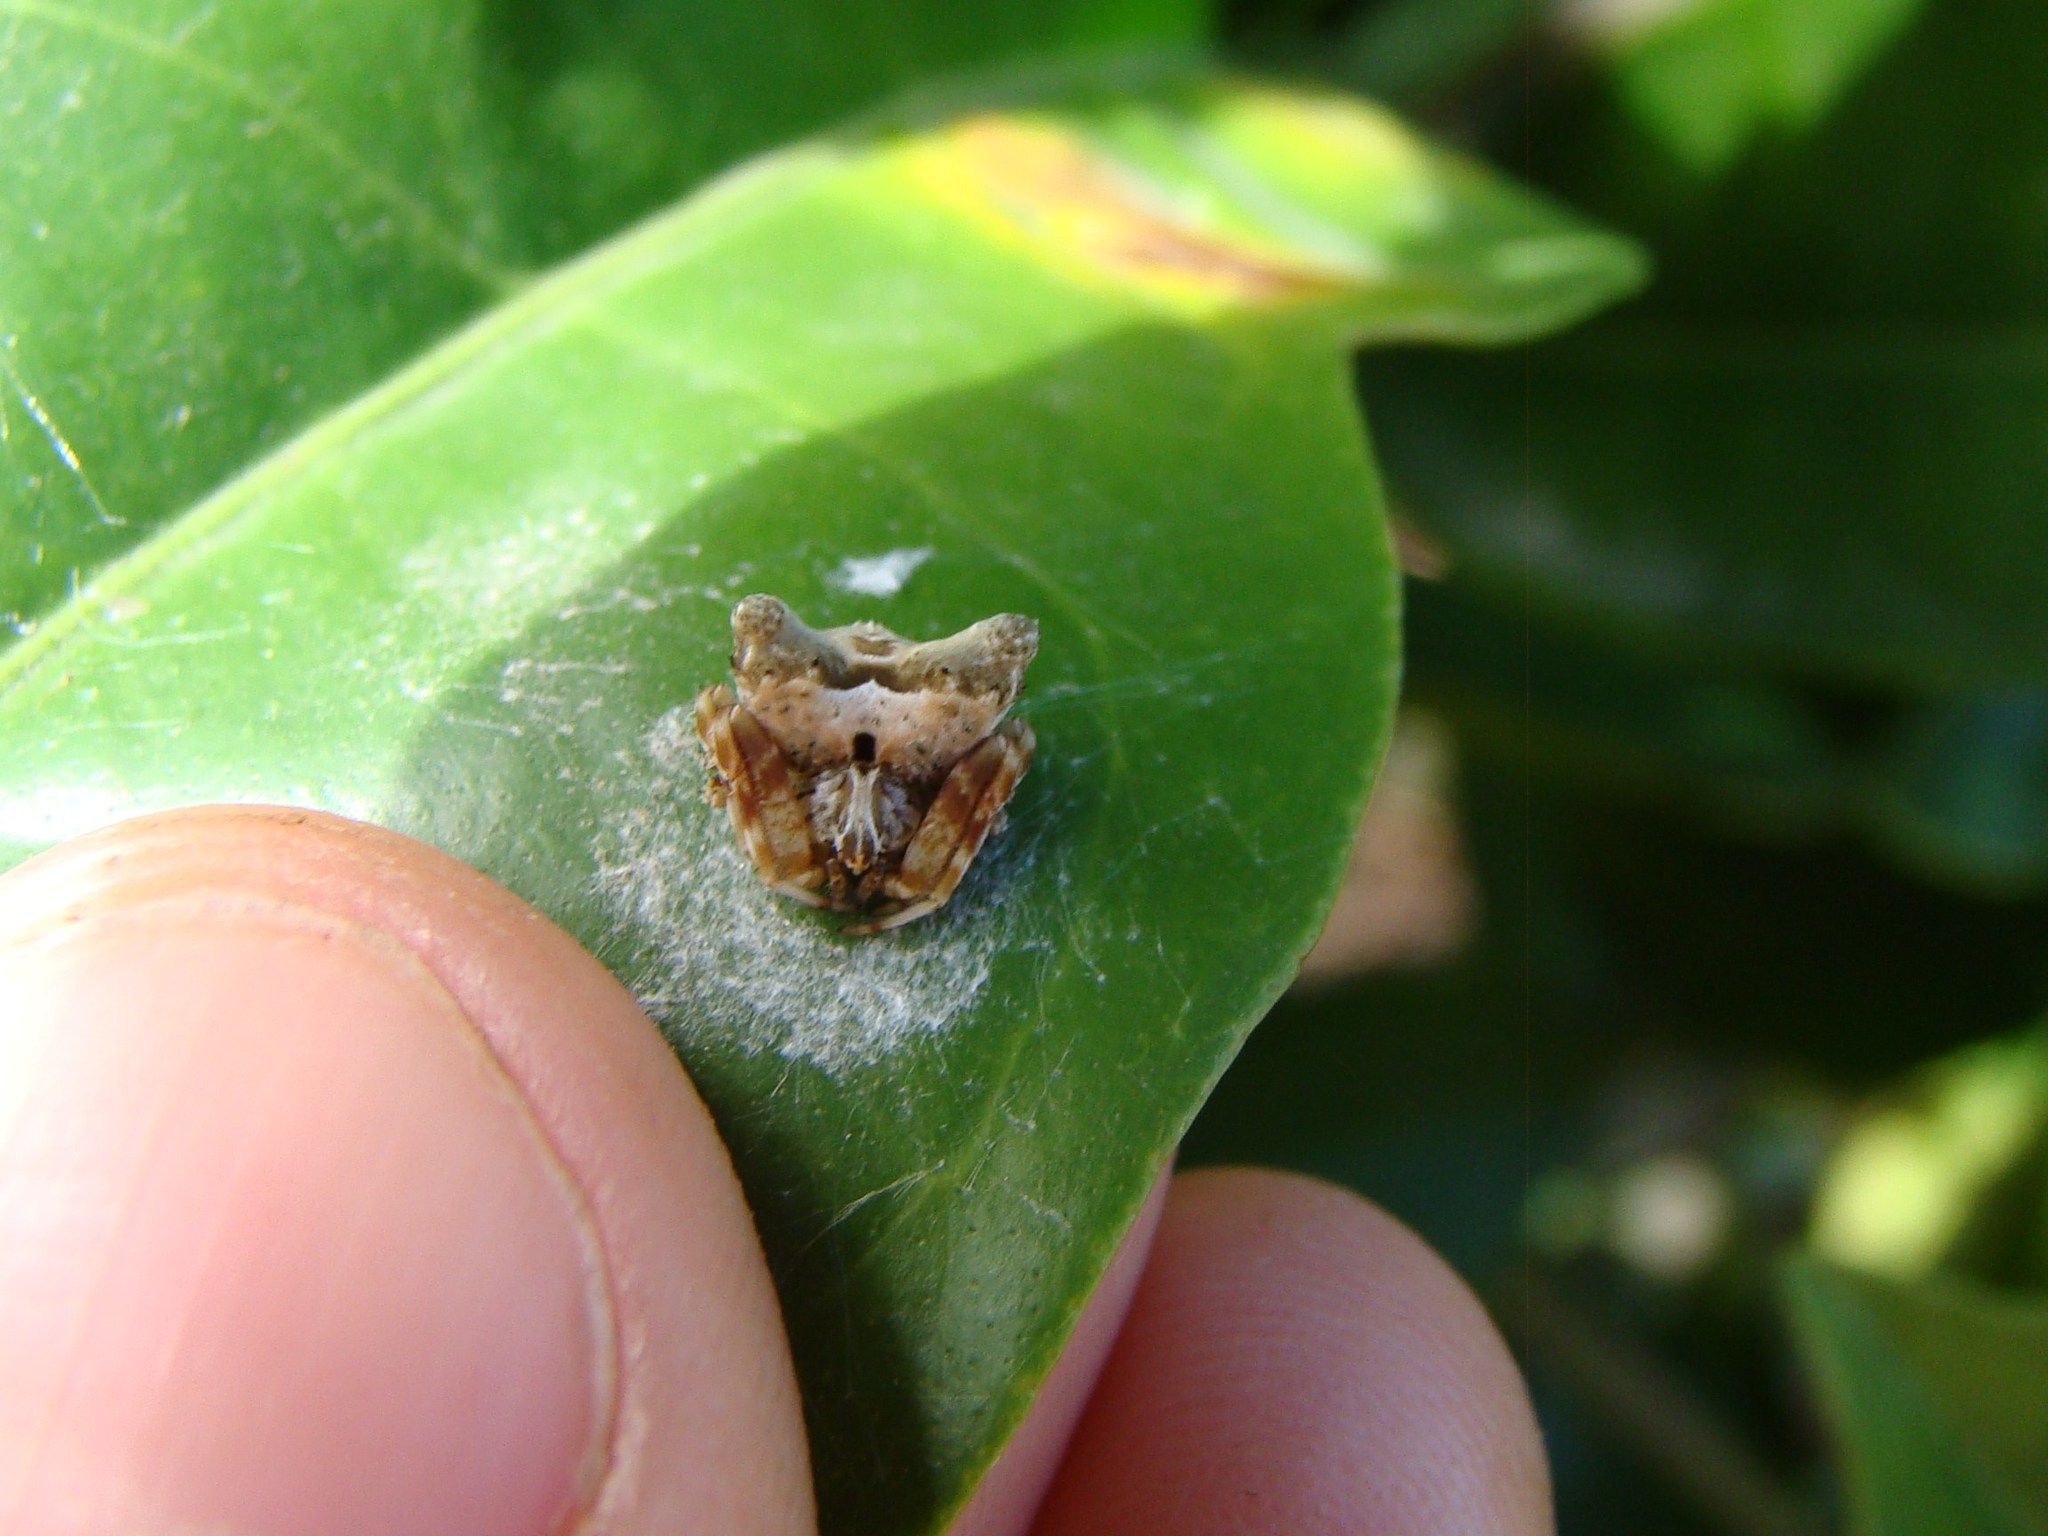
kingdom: Animalia
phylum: Arthropoda
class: Arachnida
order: Araneae
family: Araneidae
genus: Celaenia
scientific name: Celaenia olivacea
